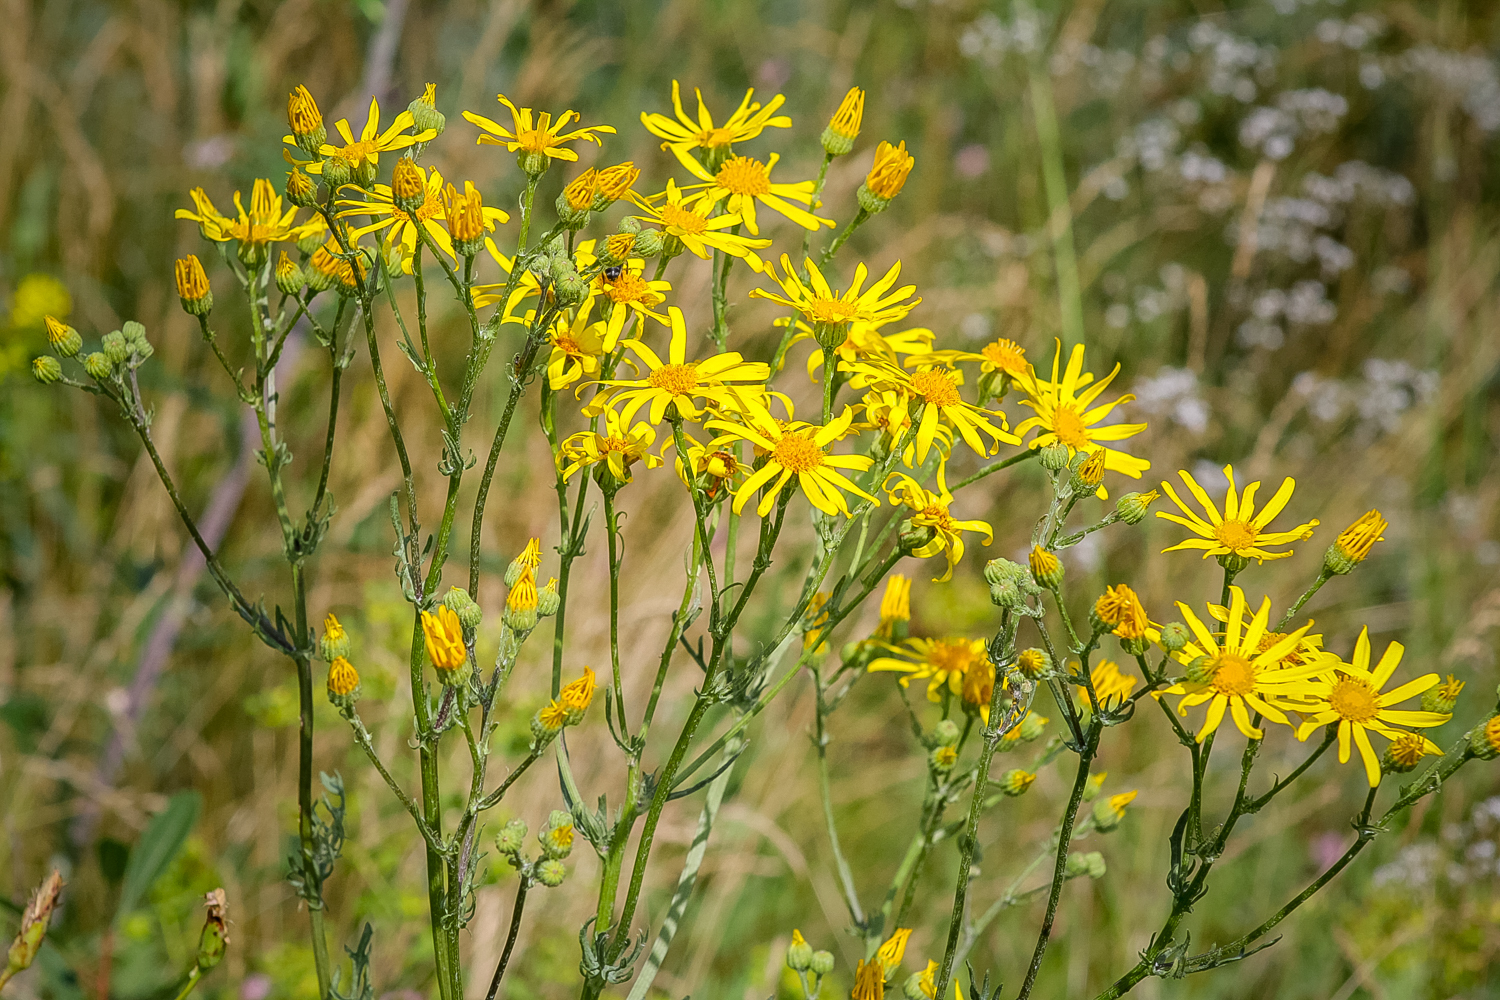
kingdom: Plantae
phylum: Tracheophyta
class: Magnoliopsida
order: Asterales
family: Asteraceae
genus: Jacobaea
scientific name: Jacobaea vulgaris
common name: Stinking willie
